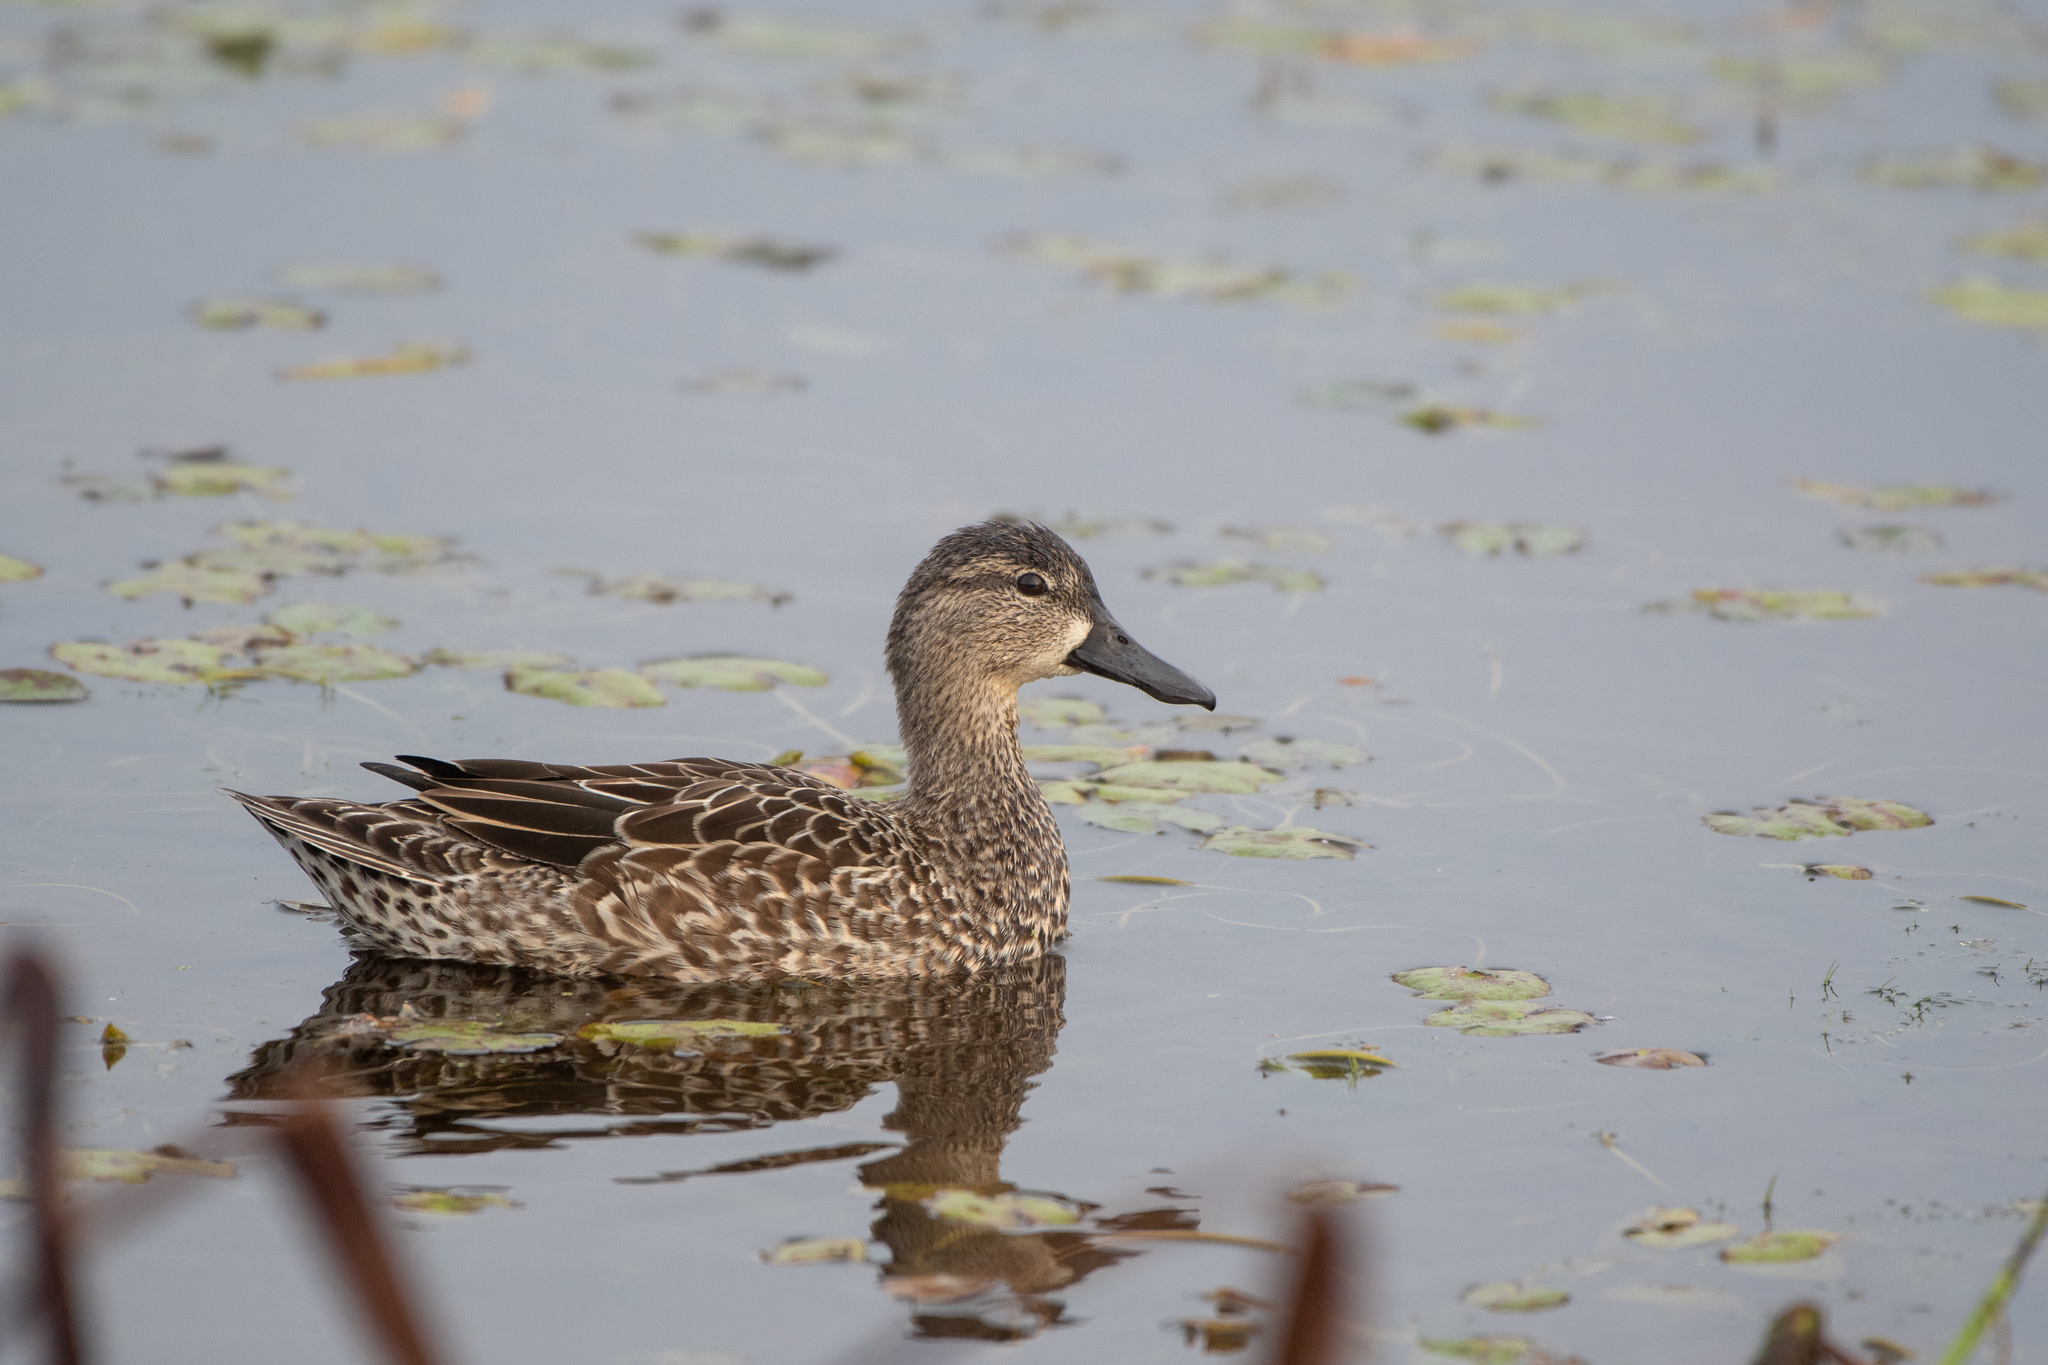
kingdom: Animalia
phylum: Chordata
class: Aves
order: Anseriformes
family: Anatidae
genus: Spatula
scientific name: Spatula discors
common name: Blue-winged teal
